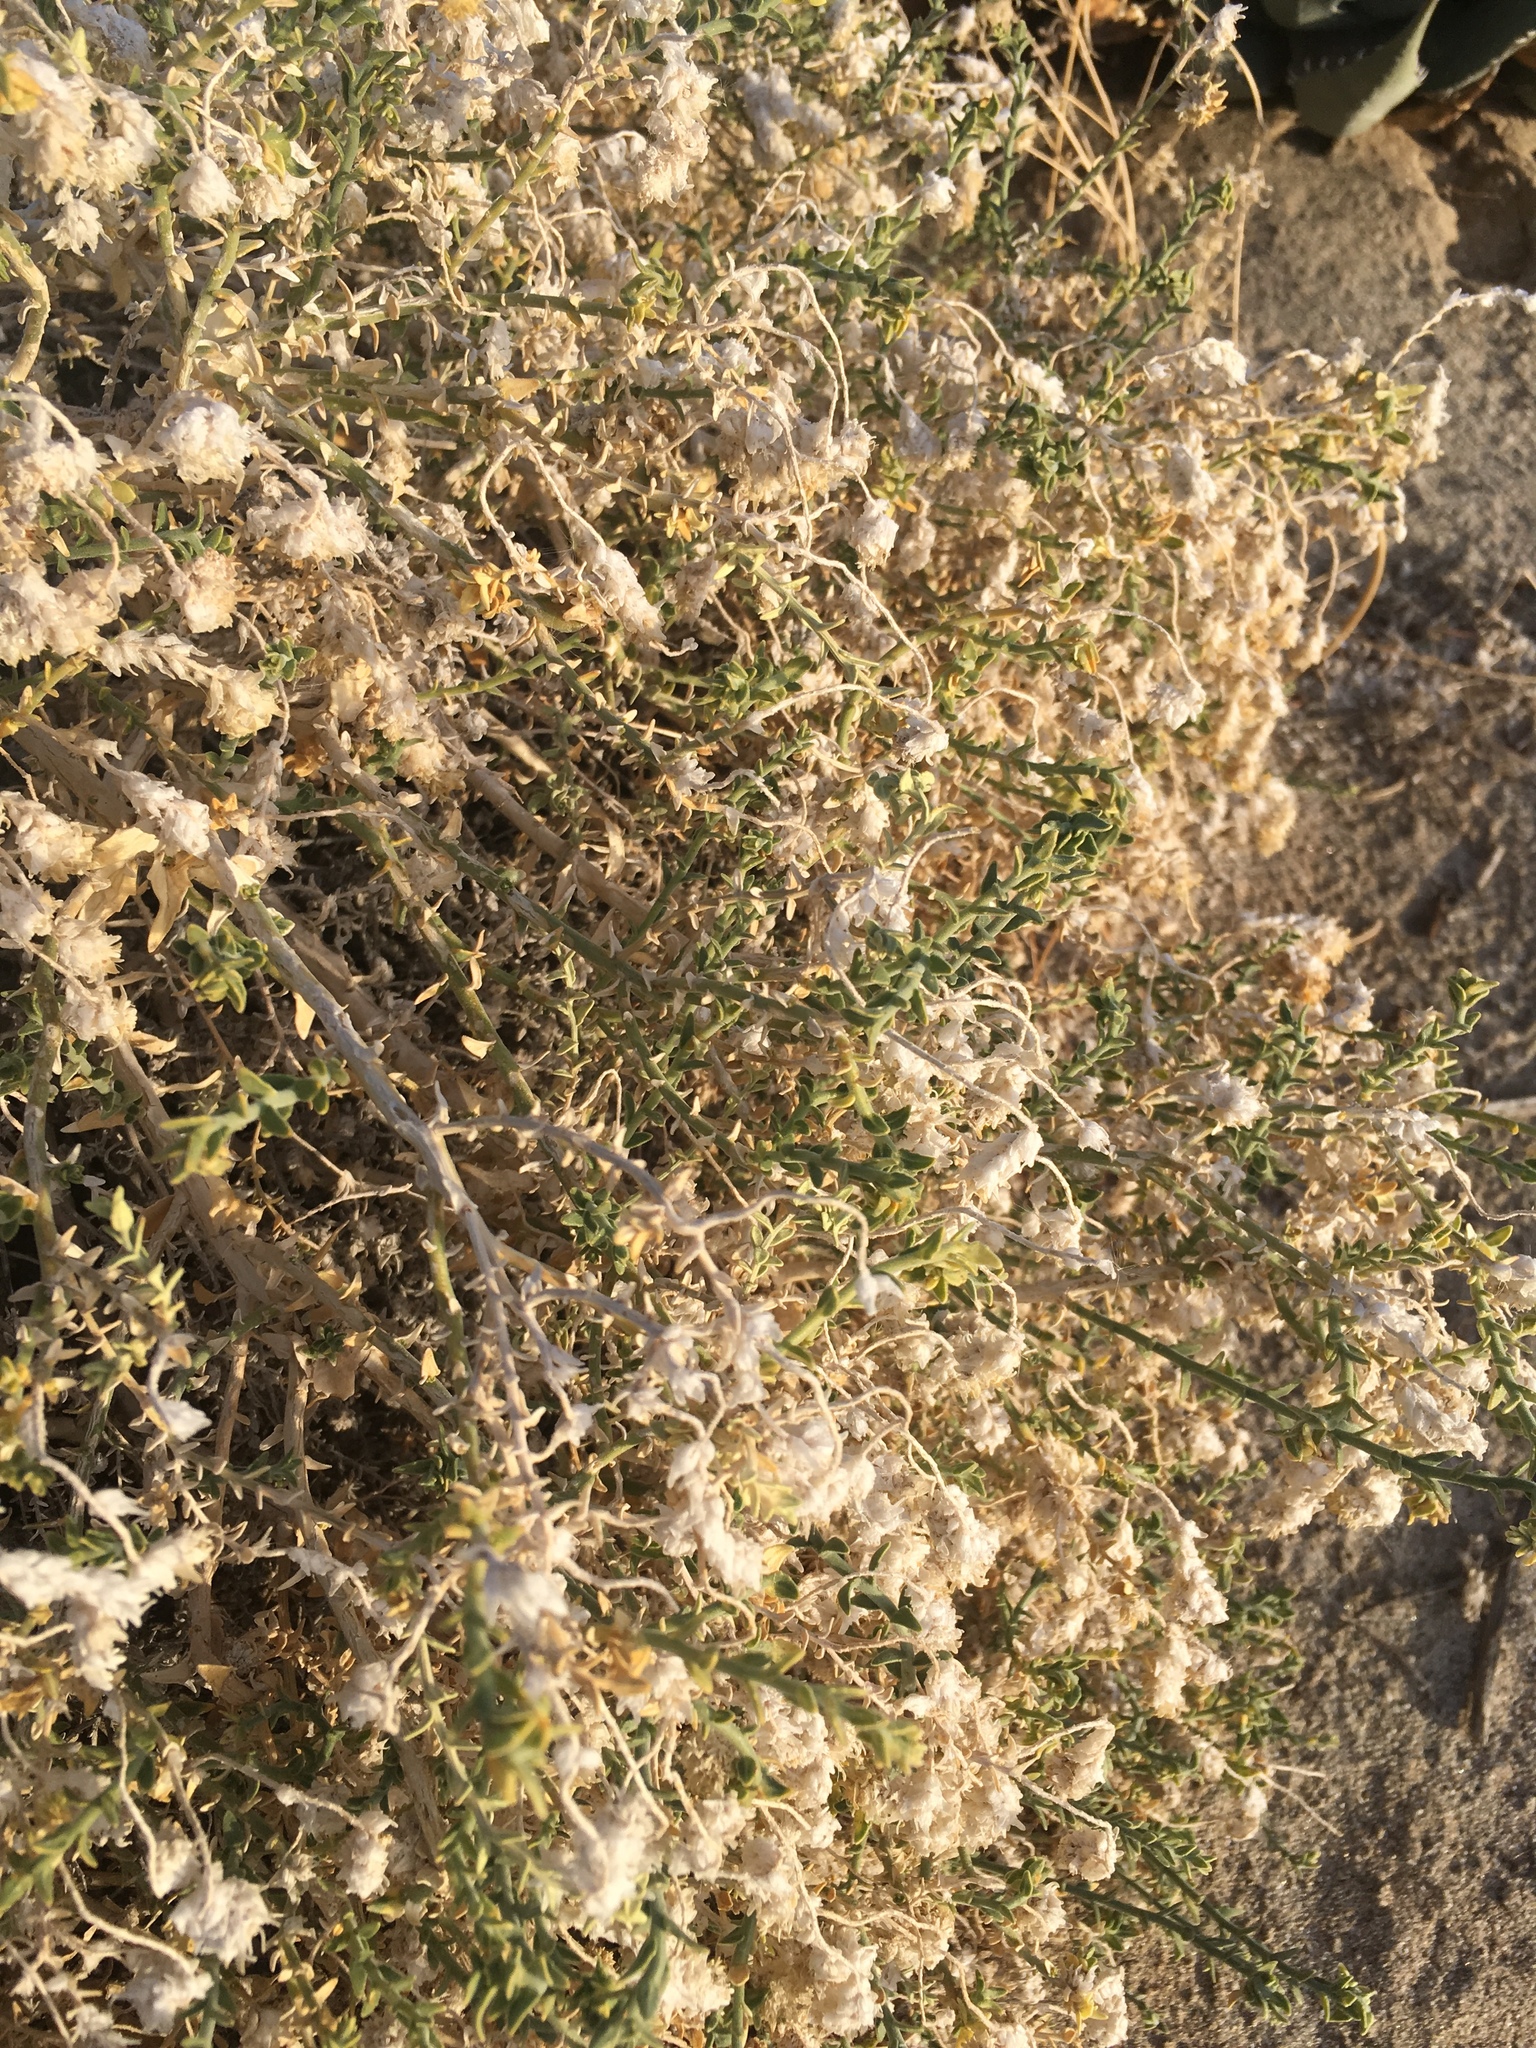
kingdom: Plantae
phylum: Tracheophyta
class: Magnoliopsida
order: Cornales
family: Loasaceae
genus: Petalonyx
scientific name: Petalonyx thurberi
